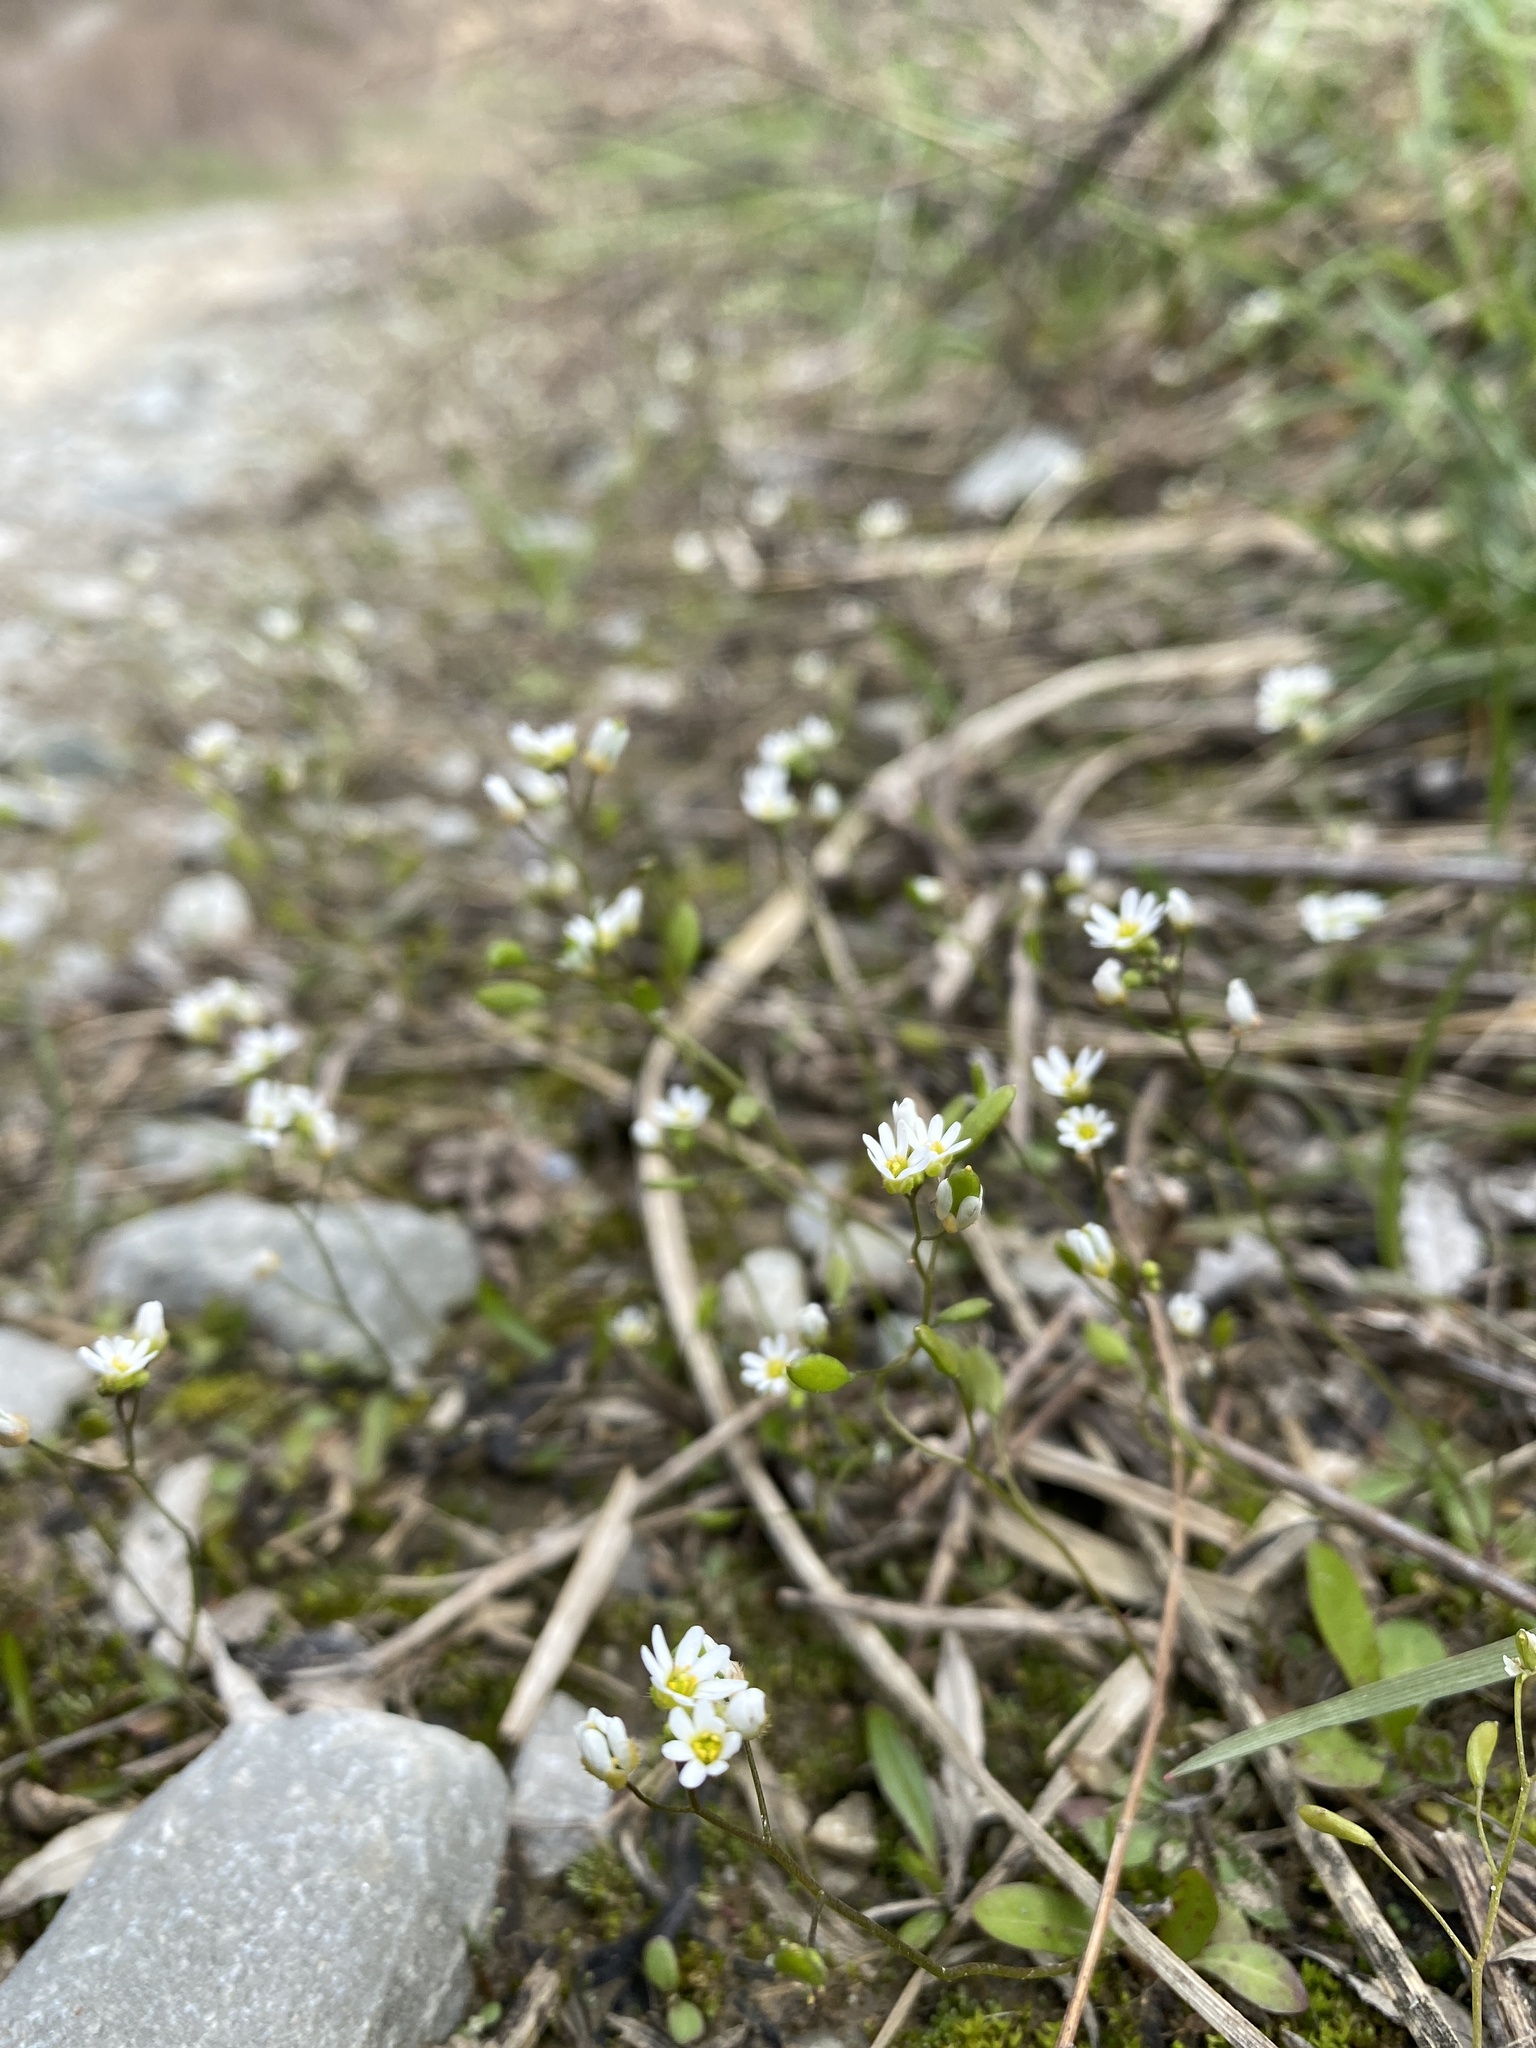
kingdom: Plantae
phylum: Tracheophyta
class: Magnoliopsida
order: Brassicales
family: Brassicaceae
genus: Draba
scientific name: Draba verna
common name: Spring draba
